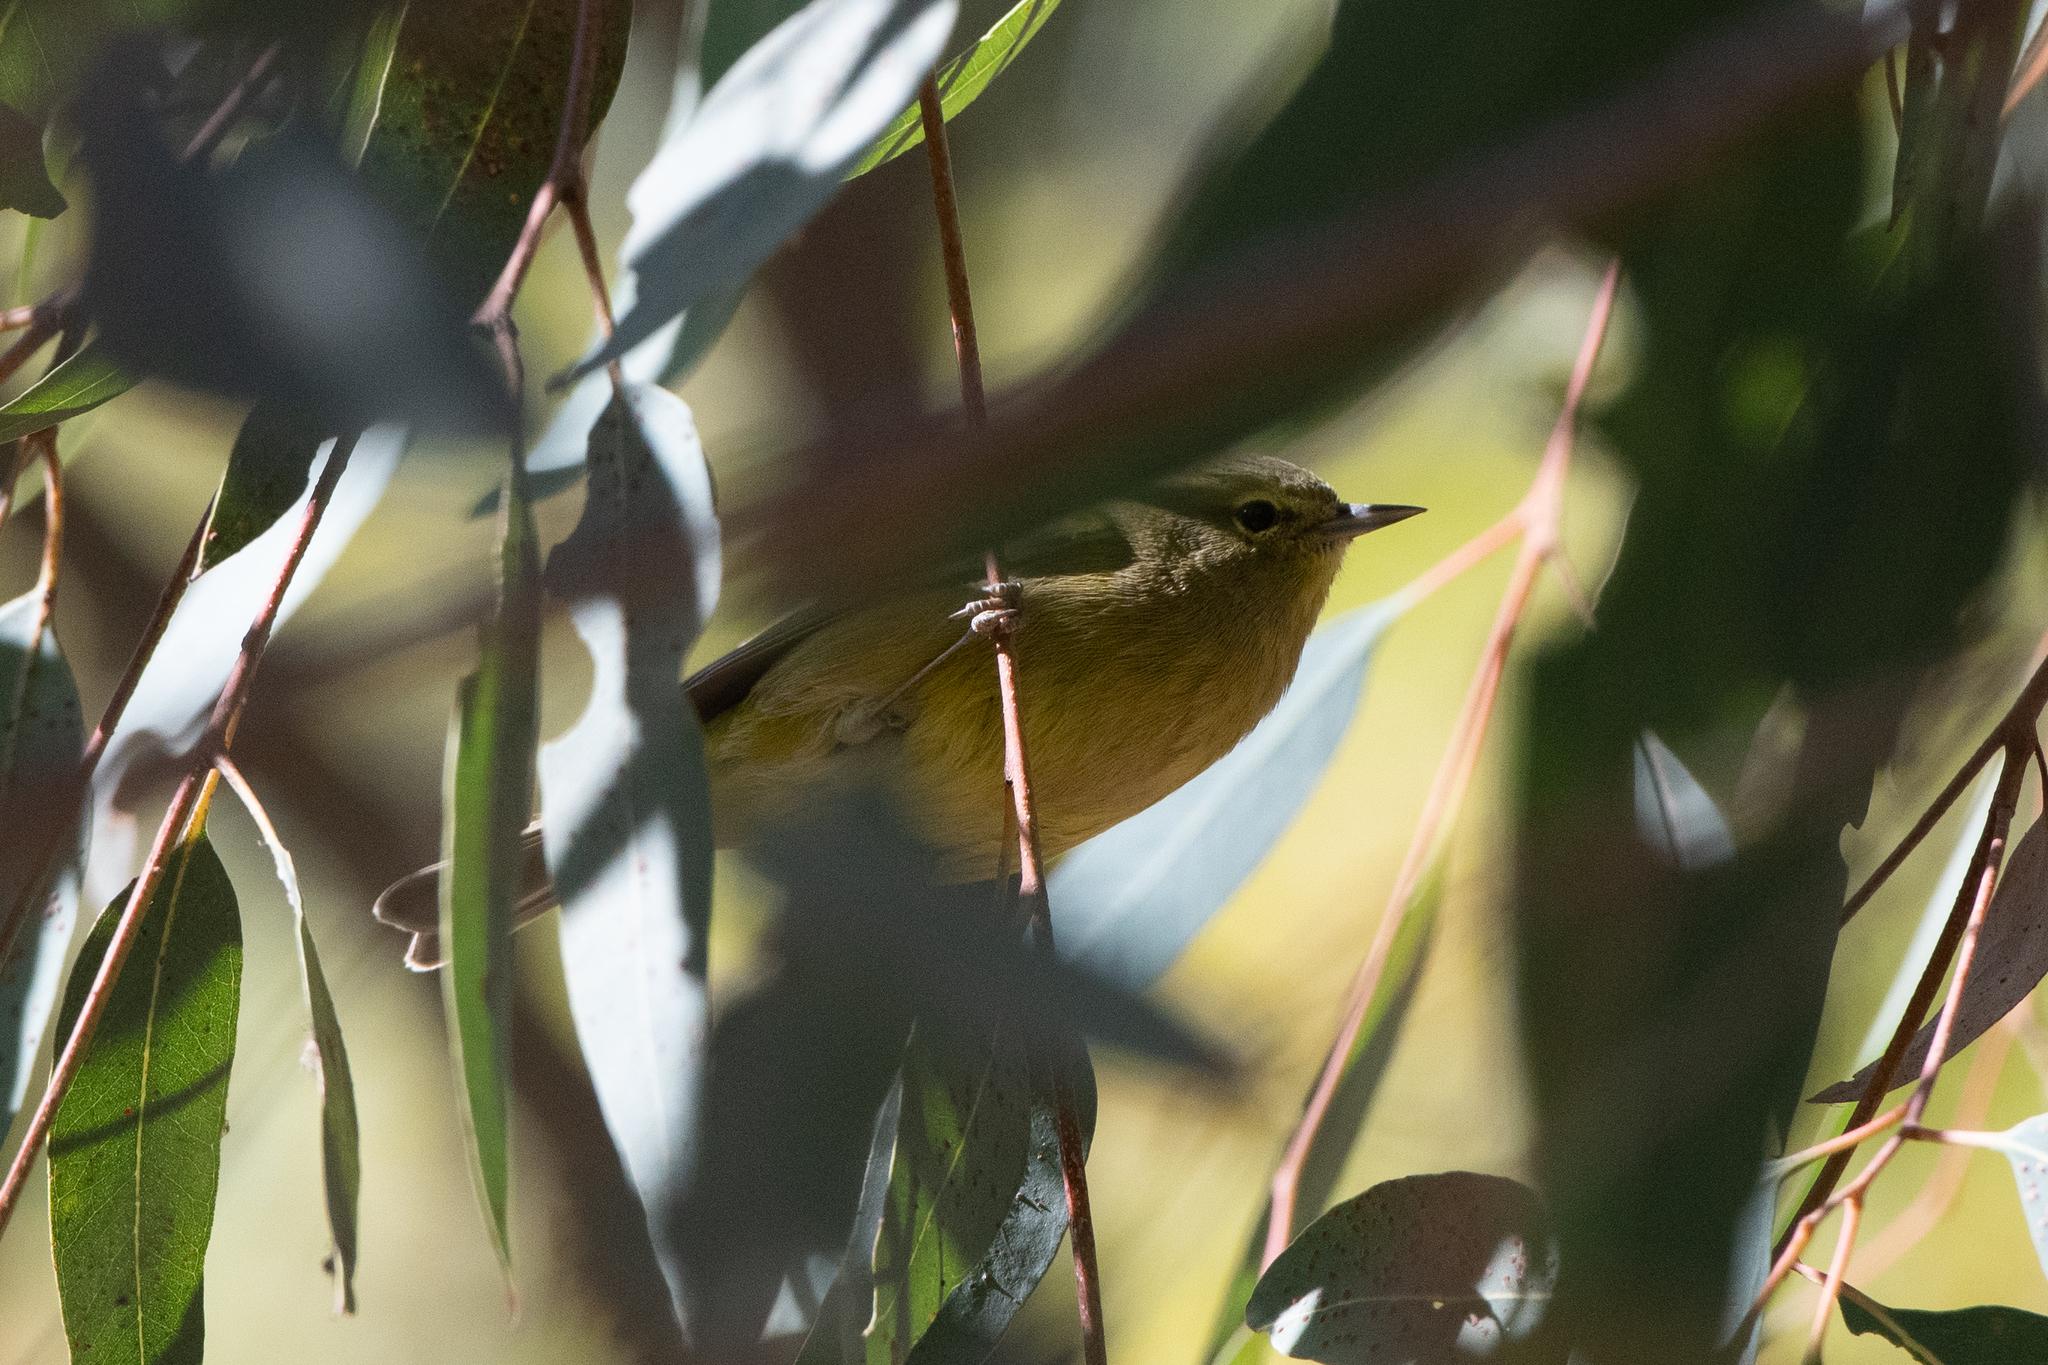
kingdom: Animalia
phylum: Chordata
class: Aves
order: Passeriformes
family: Parulidae
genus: Leiothlypis
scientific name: Leiothlypis celata
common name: Orange-crowned warbler
